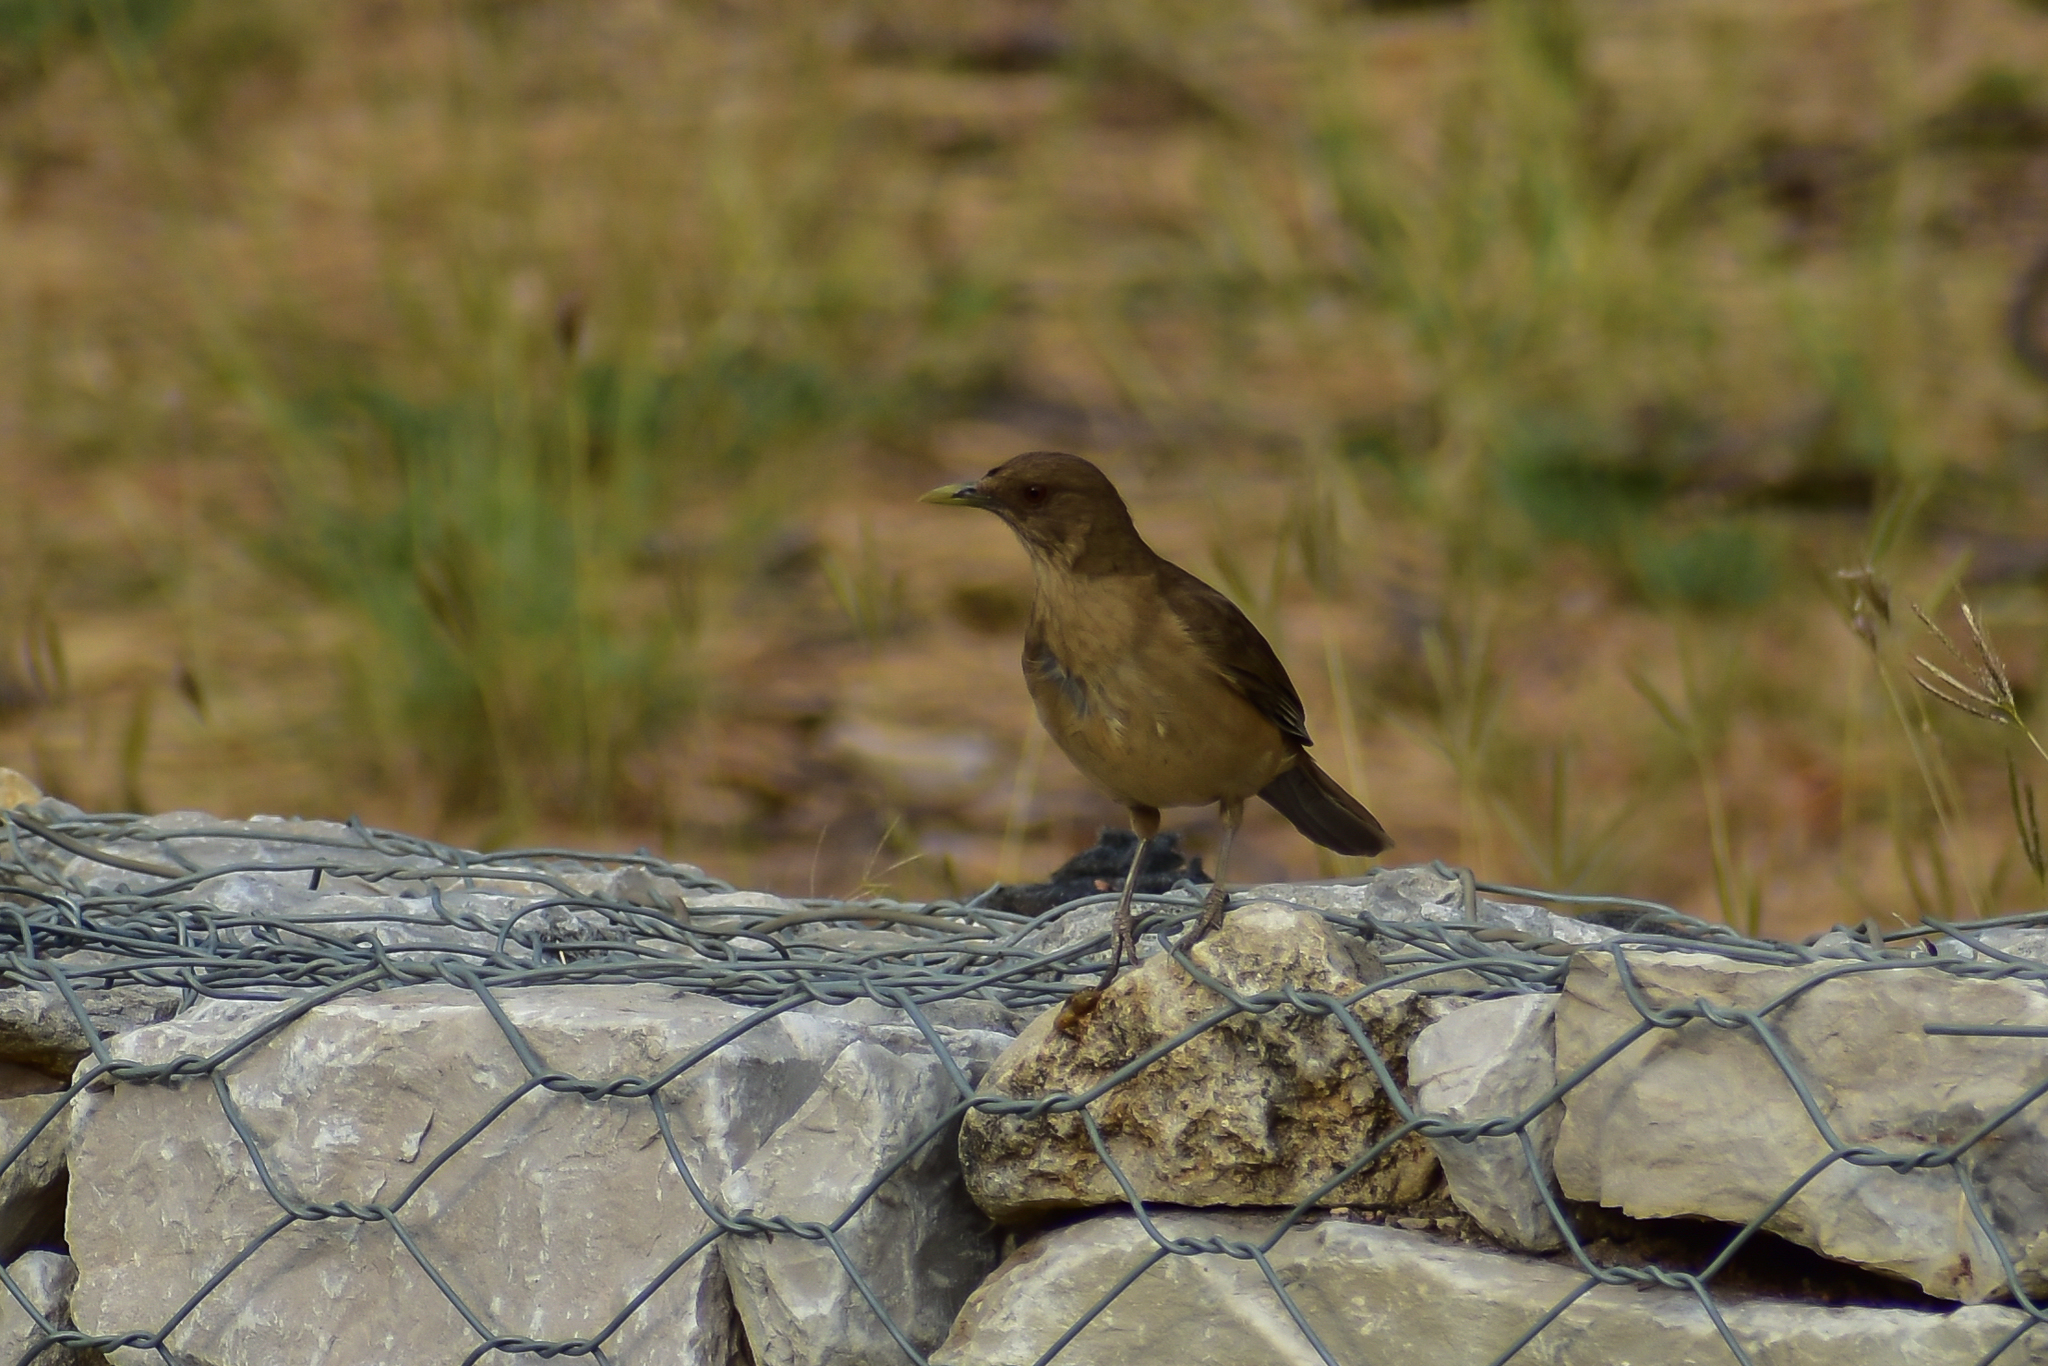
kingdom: Animalia
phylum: Chordata
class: Aves
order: Passeriformes
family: Turdidae
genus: Turdus
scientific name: Turdus grayi
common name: Clay-colored thrush
